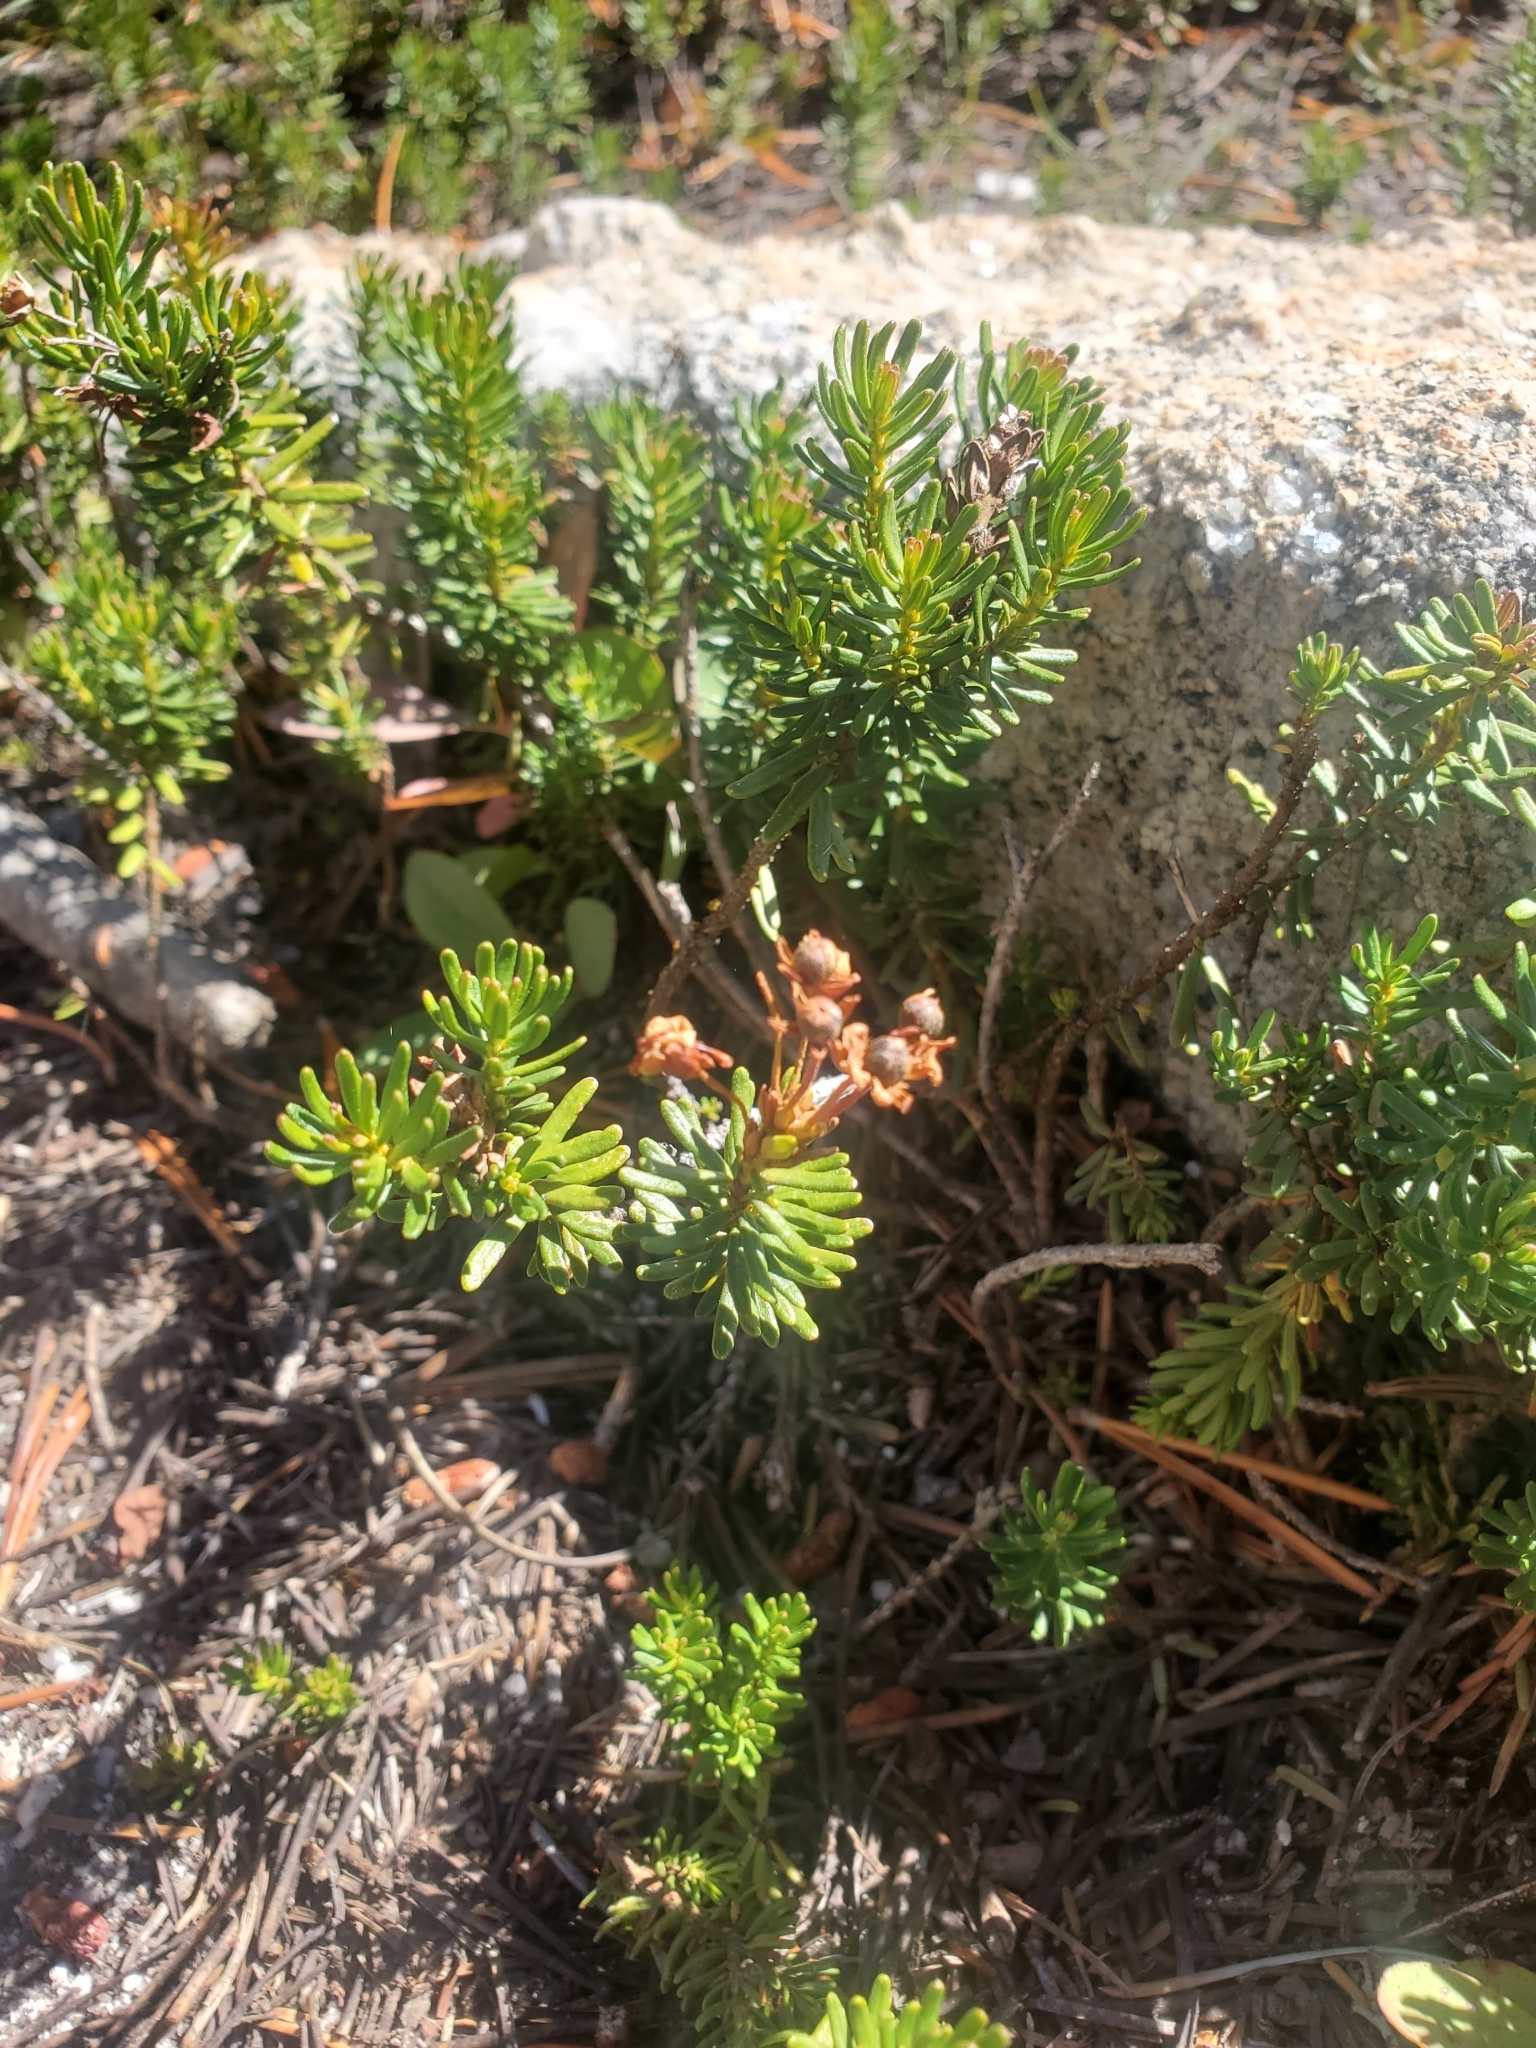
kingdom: Plantae
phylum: Tracheophyta
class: Magnoliopsida
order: Ericales
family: Ericaceae
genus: Phyllodoce
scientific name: Phyllodoce breweri
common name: Brewer's mountain-heather
